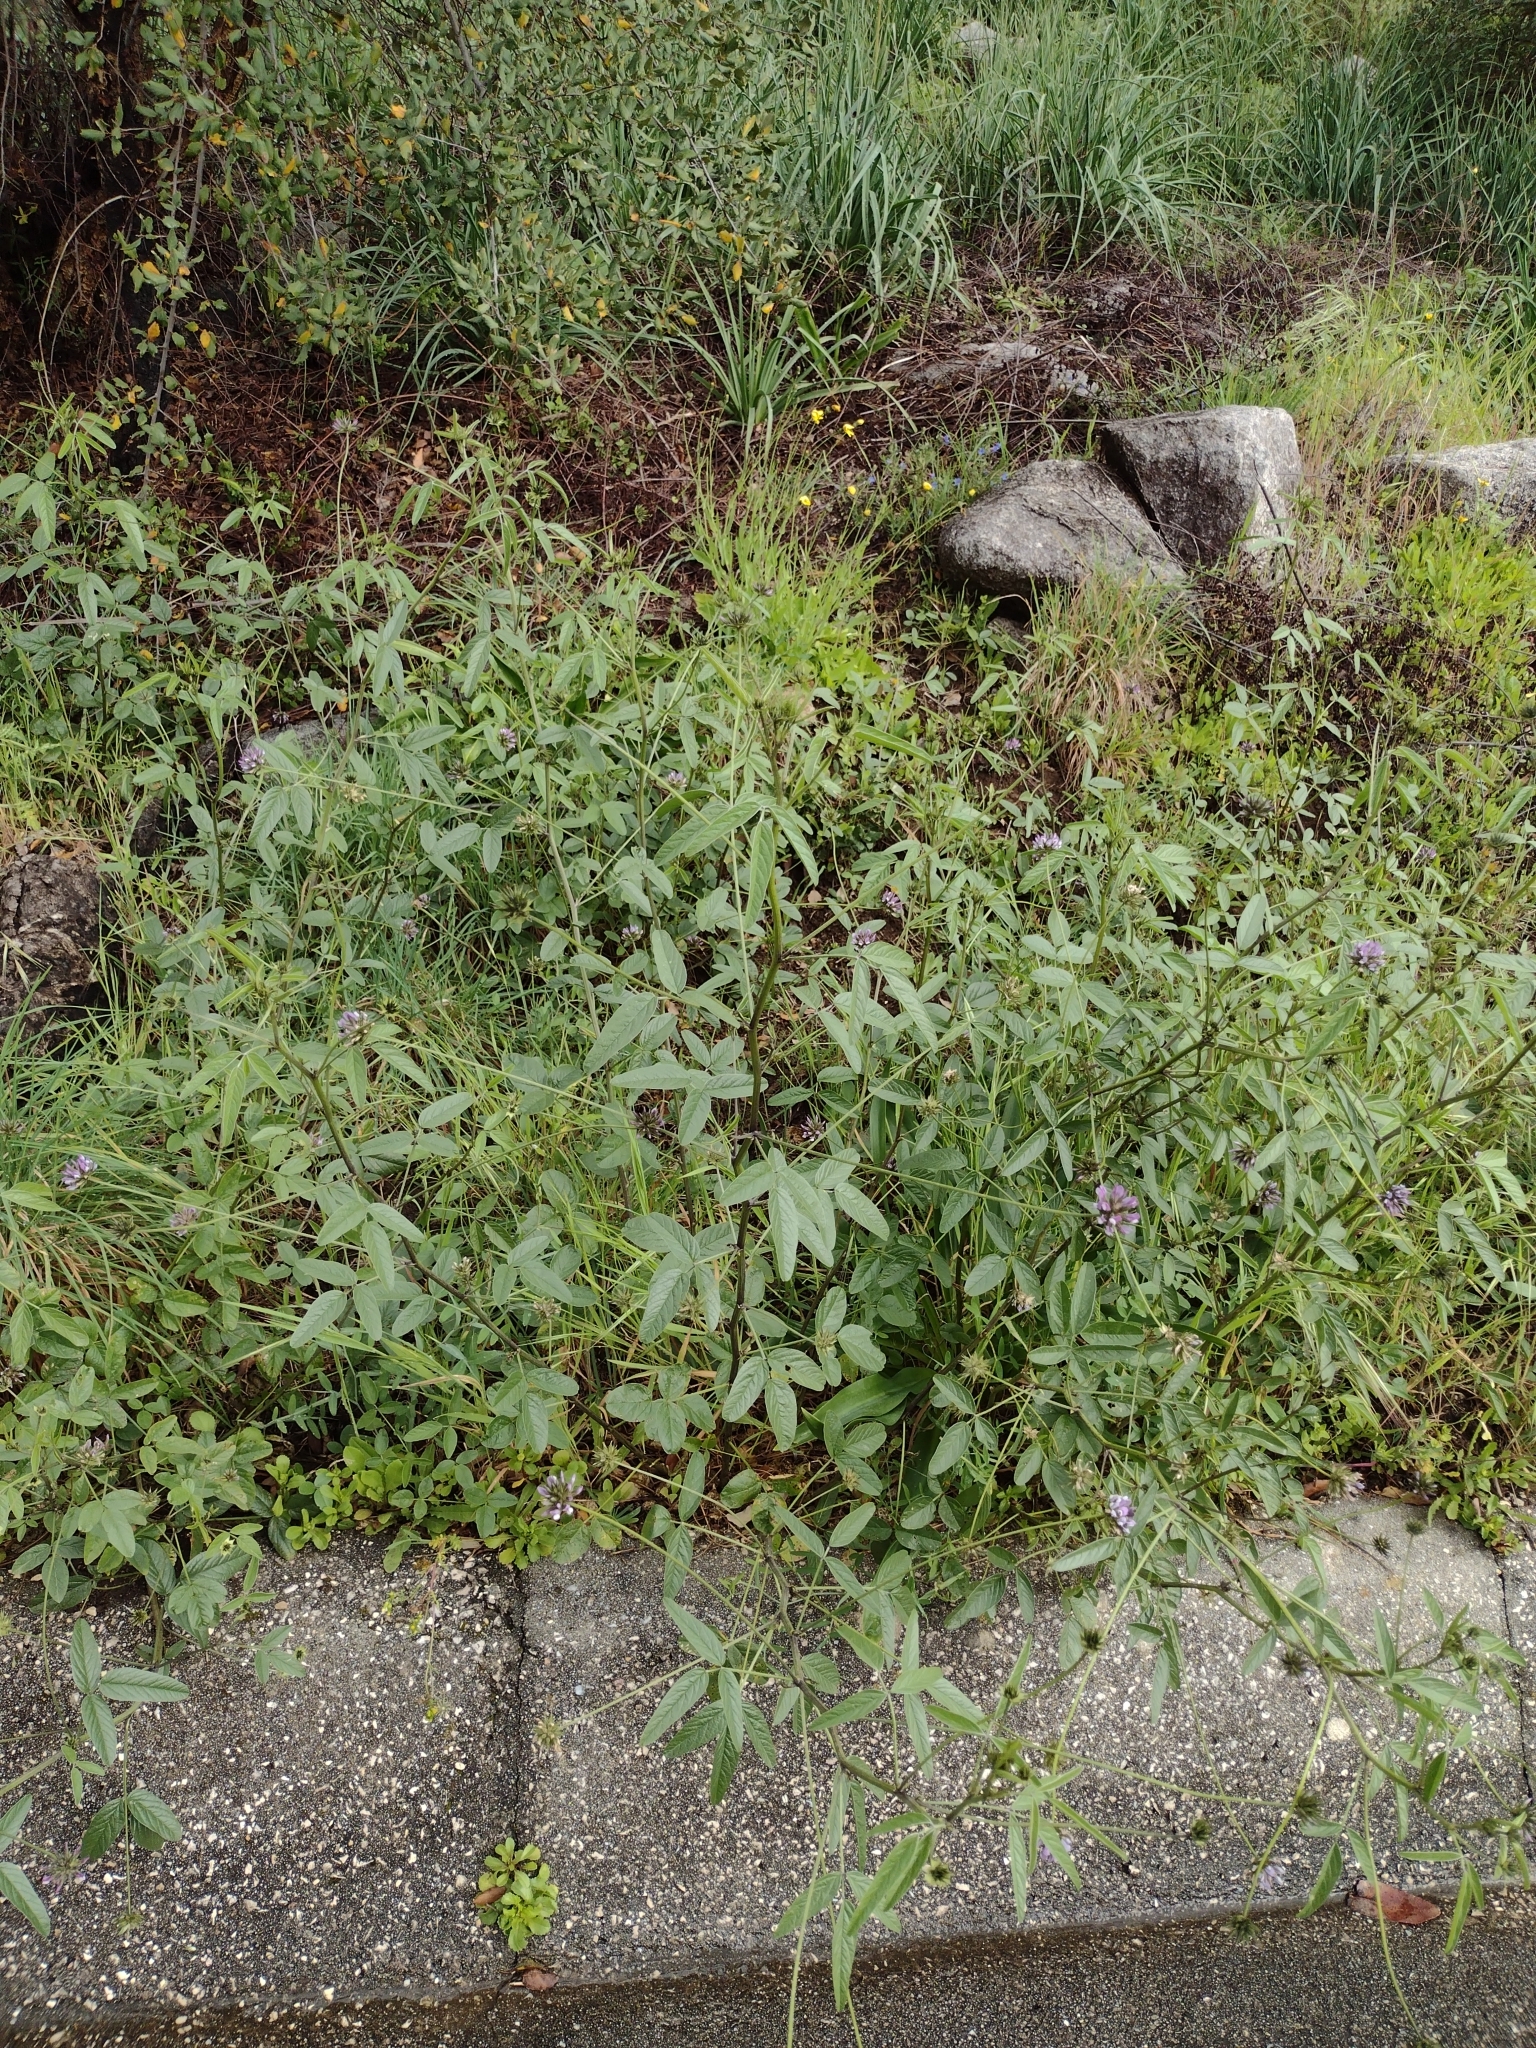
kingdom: Plantae
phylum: Tracheophyta
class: Magnoliopsida
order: Fabales
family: Fabaceae
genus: Bituminaria
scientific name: Bituminaria bituminosa
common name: Arabian pea
